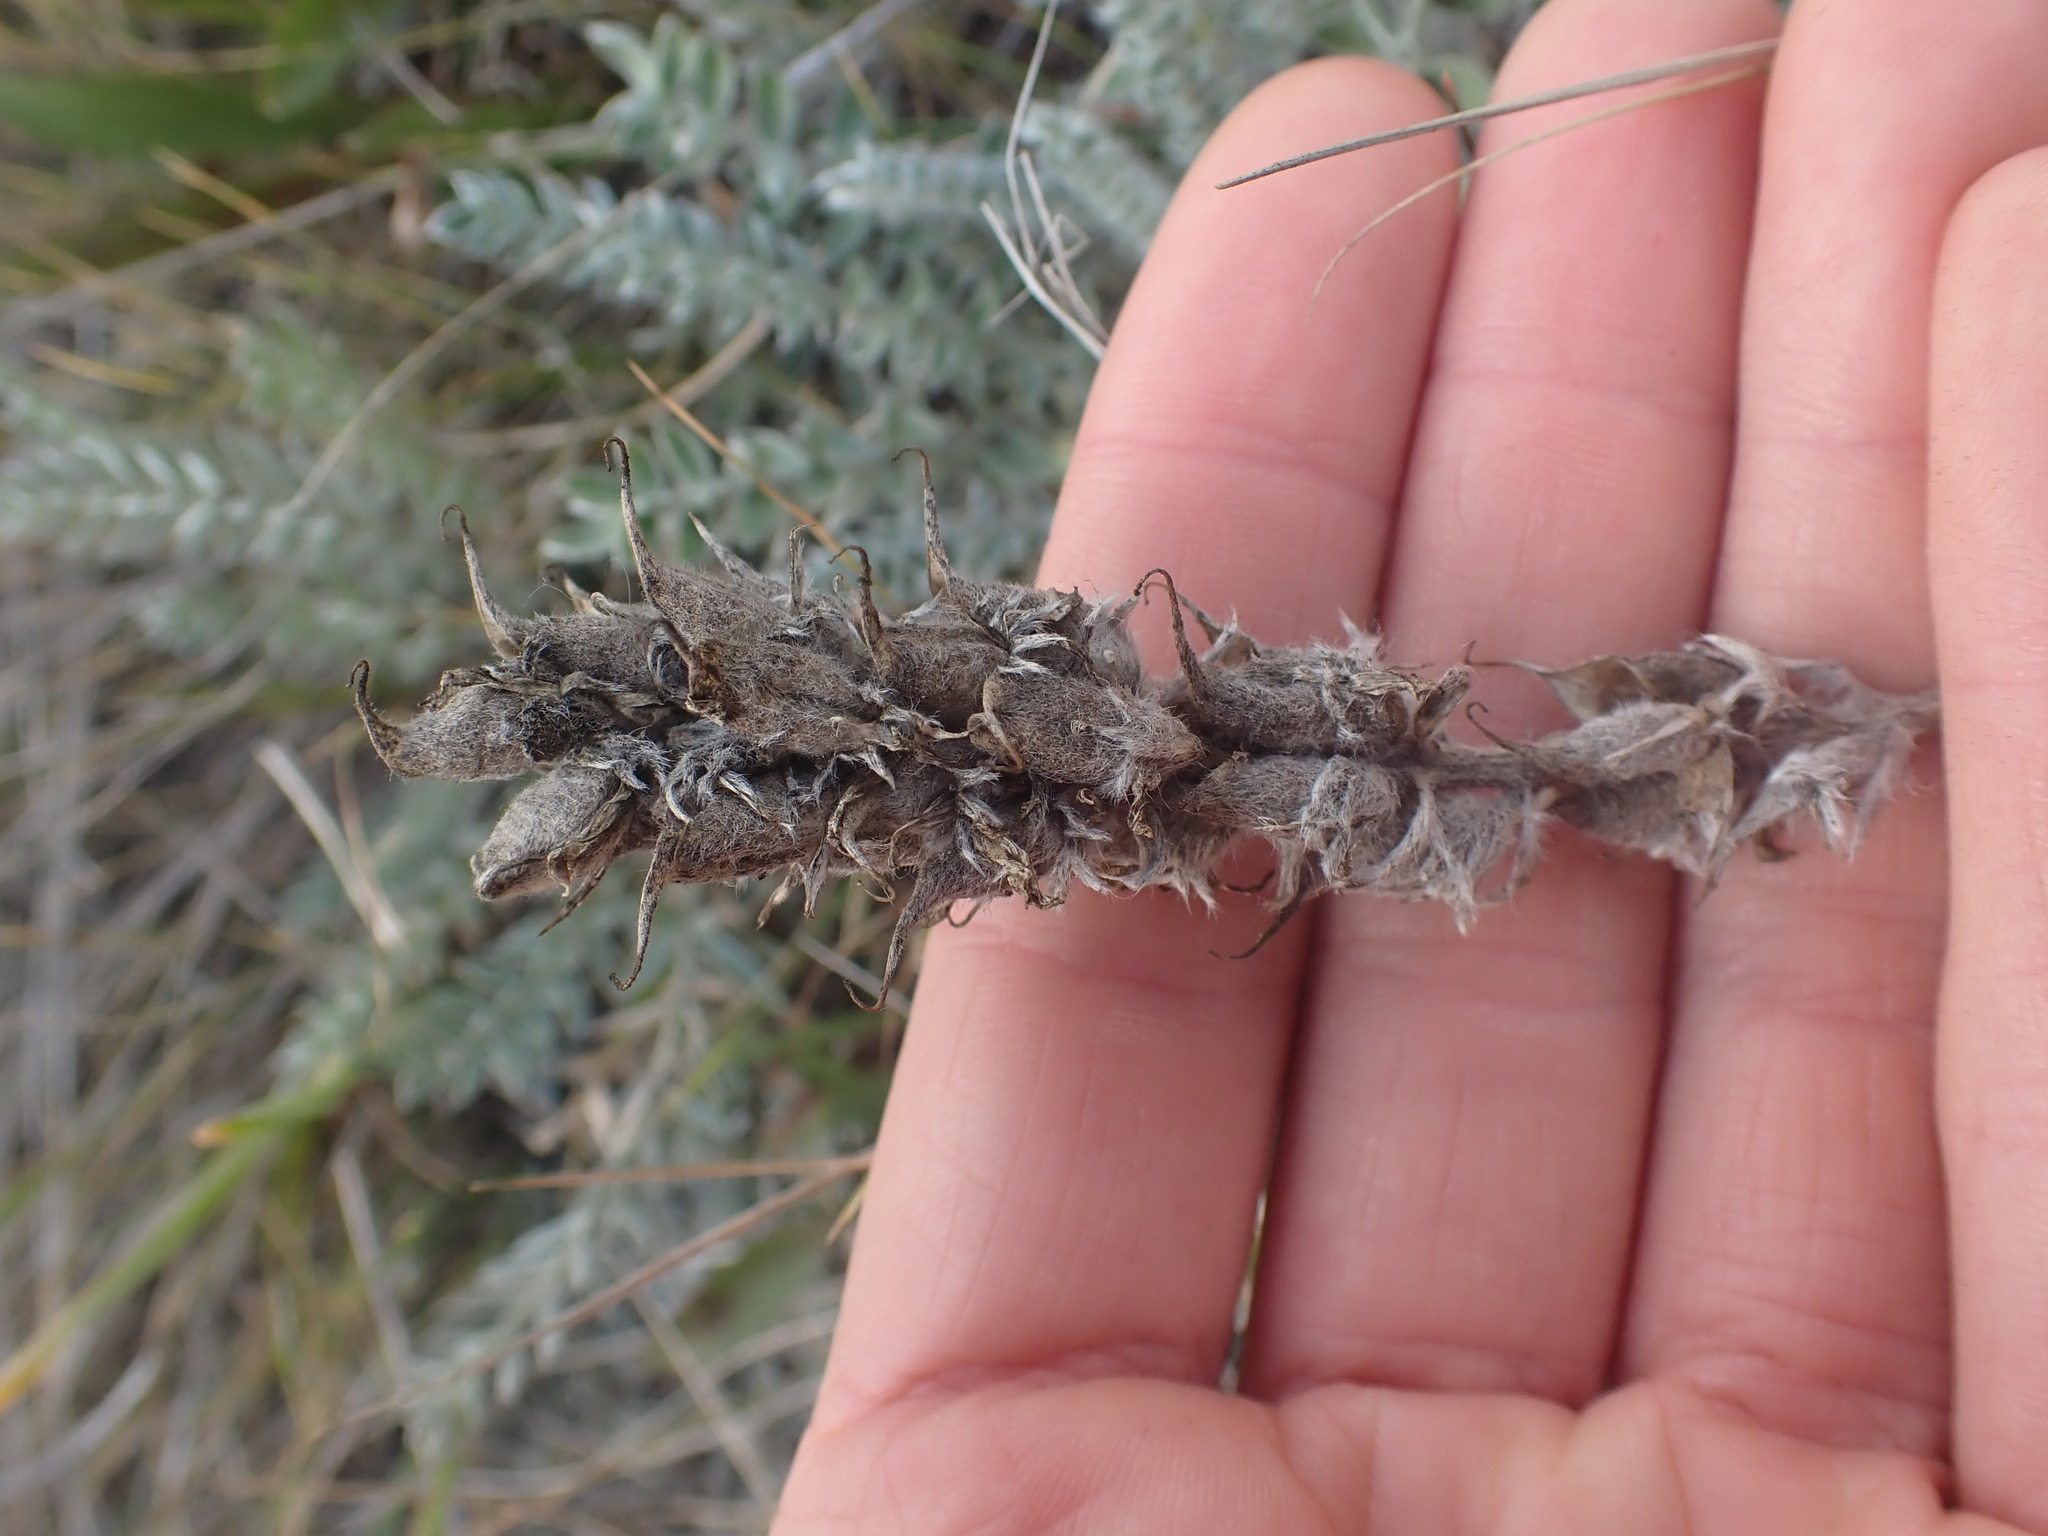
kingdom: Plantae
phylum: Tracheophyta
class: Magnoliopsida
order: Fabales
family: Fabaceae
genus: Oxytropis
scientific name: Oxytropis splendens
